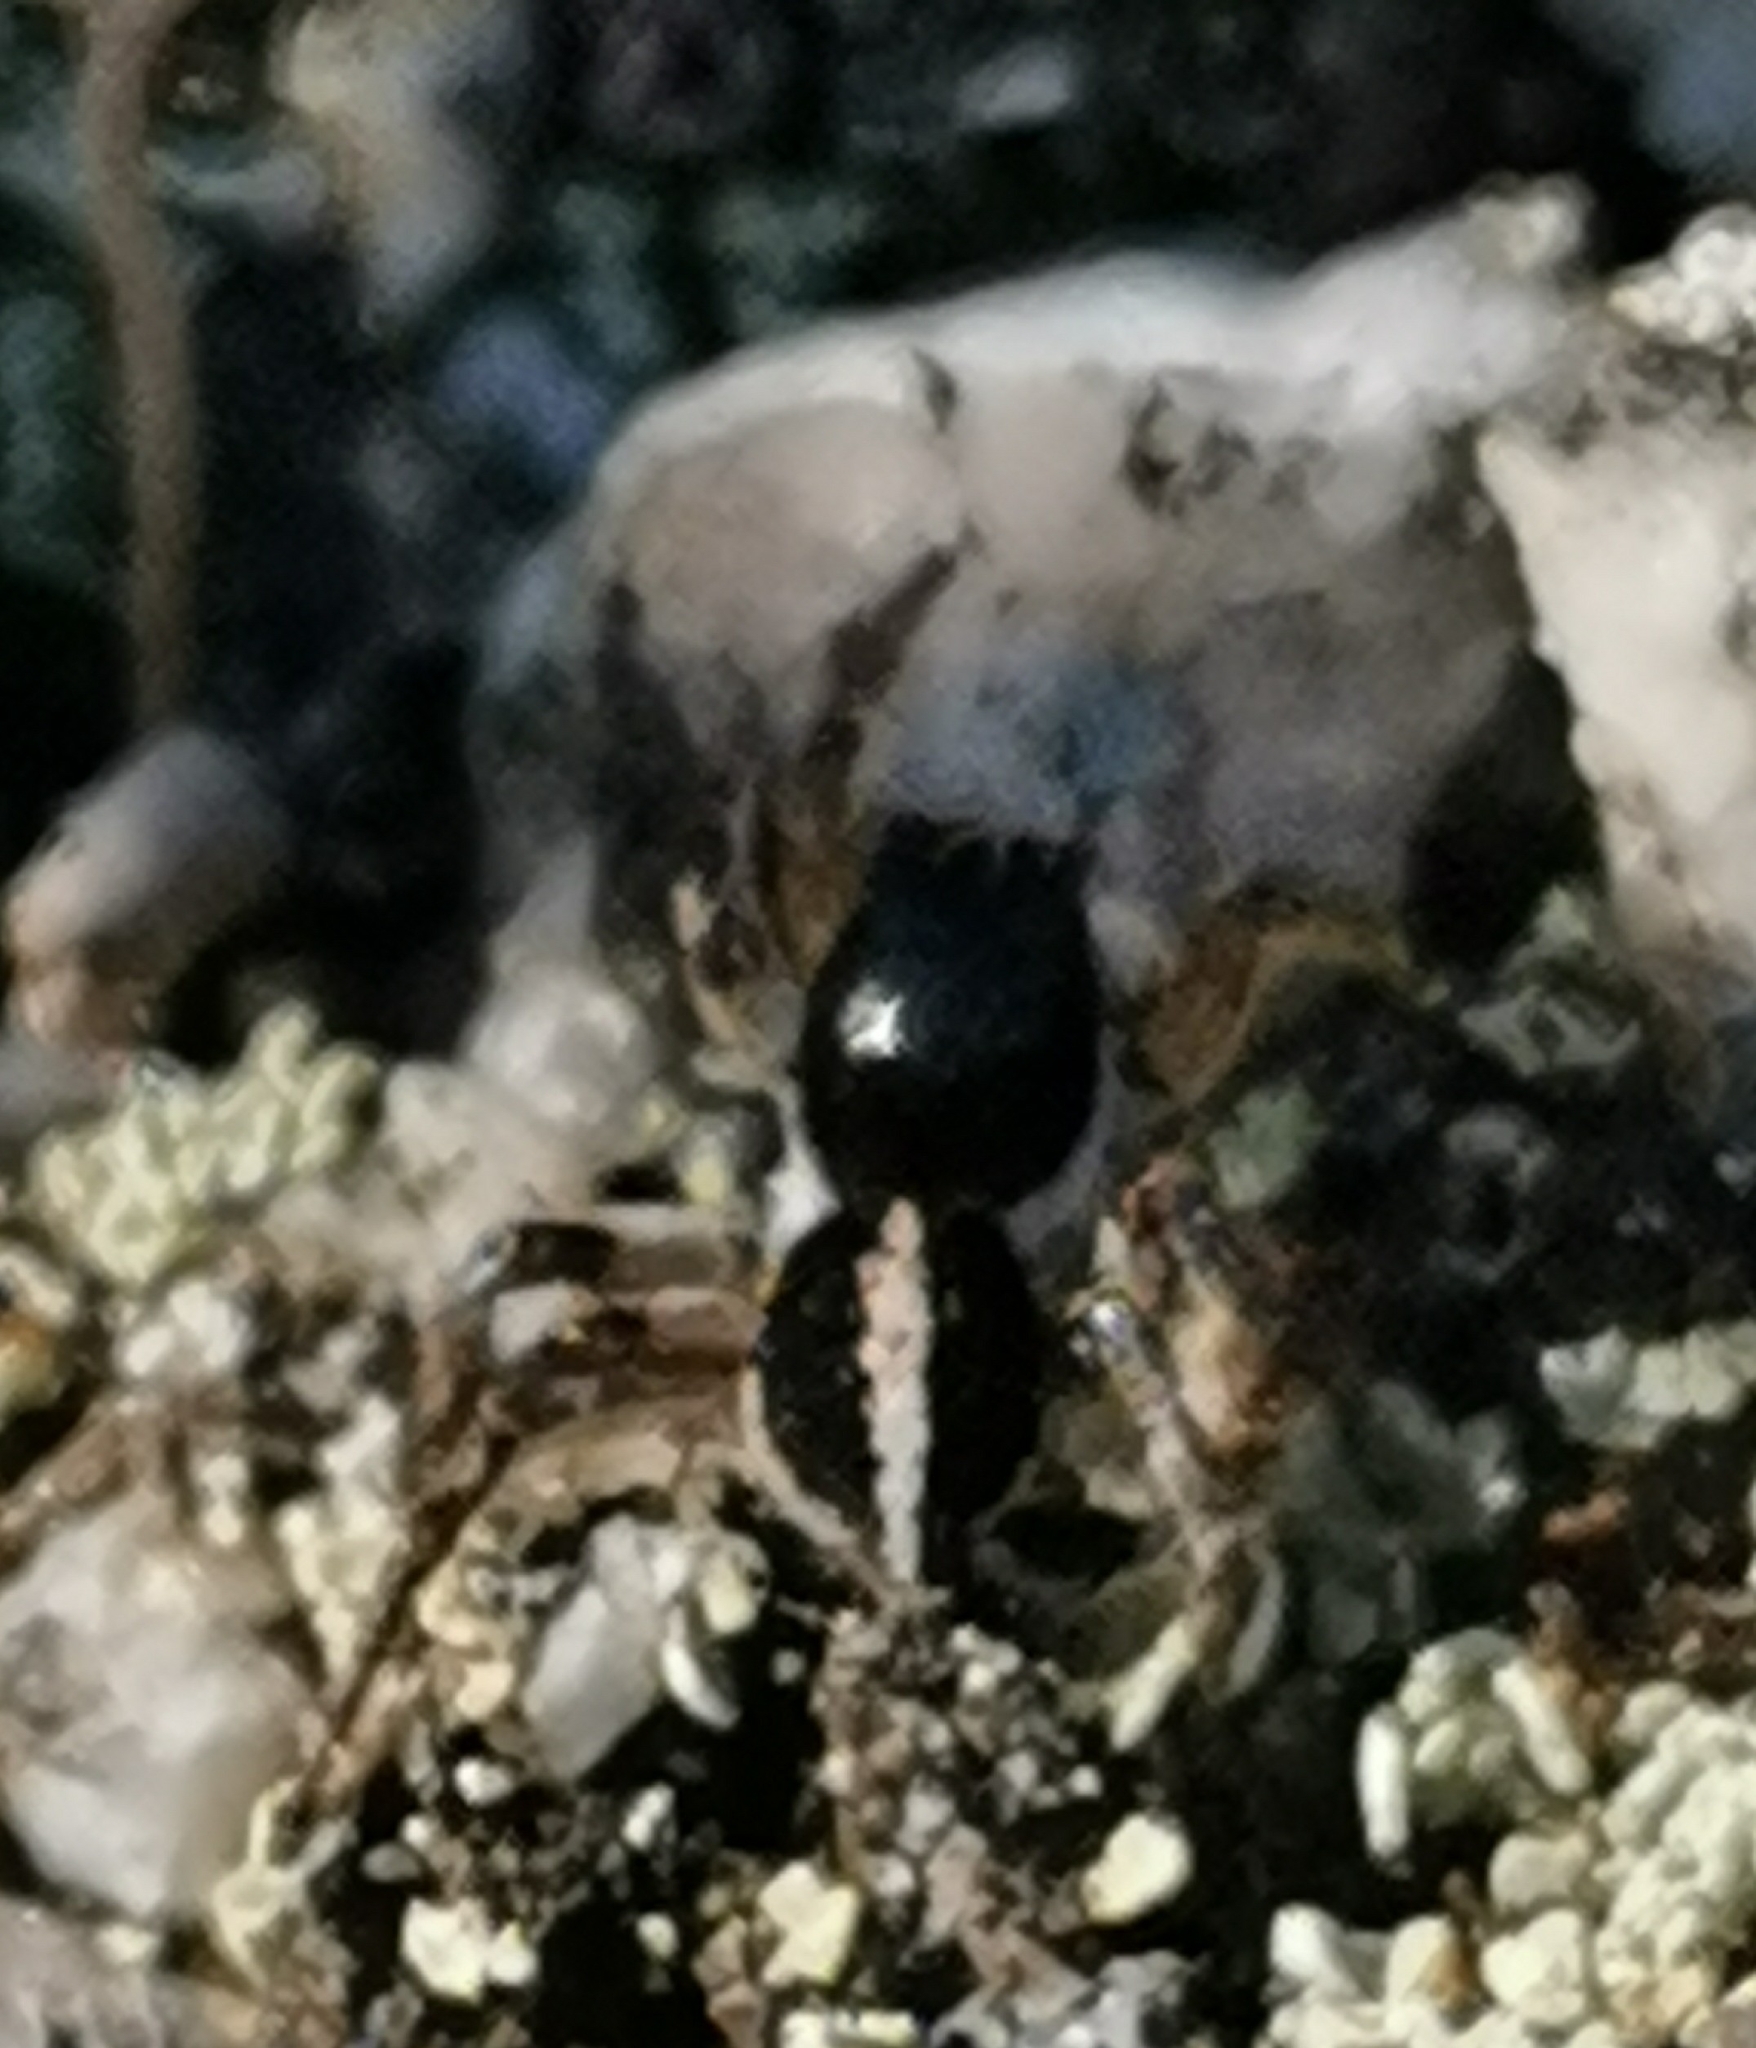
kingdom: Animalia
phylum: Arthropoda
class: Arachnida
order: Araneae
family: Salticidae
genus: Aelurillus
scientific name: Aelurillus v-insignitus
